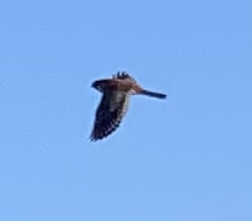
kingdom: Animalia
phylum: Chordata
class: Aves
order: Falconiformes
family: Falconidae
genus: Falco
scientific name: Falco sparverius
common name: American kestrel
